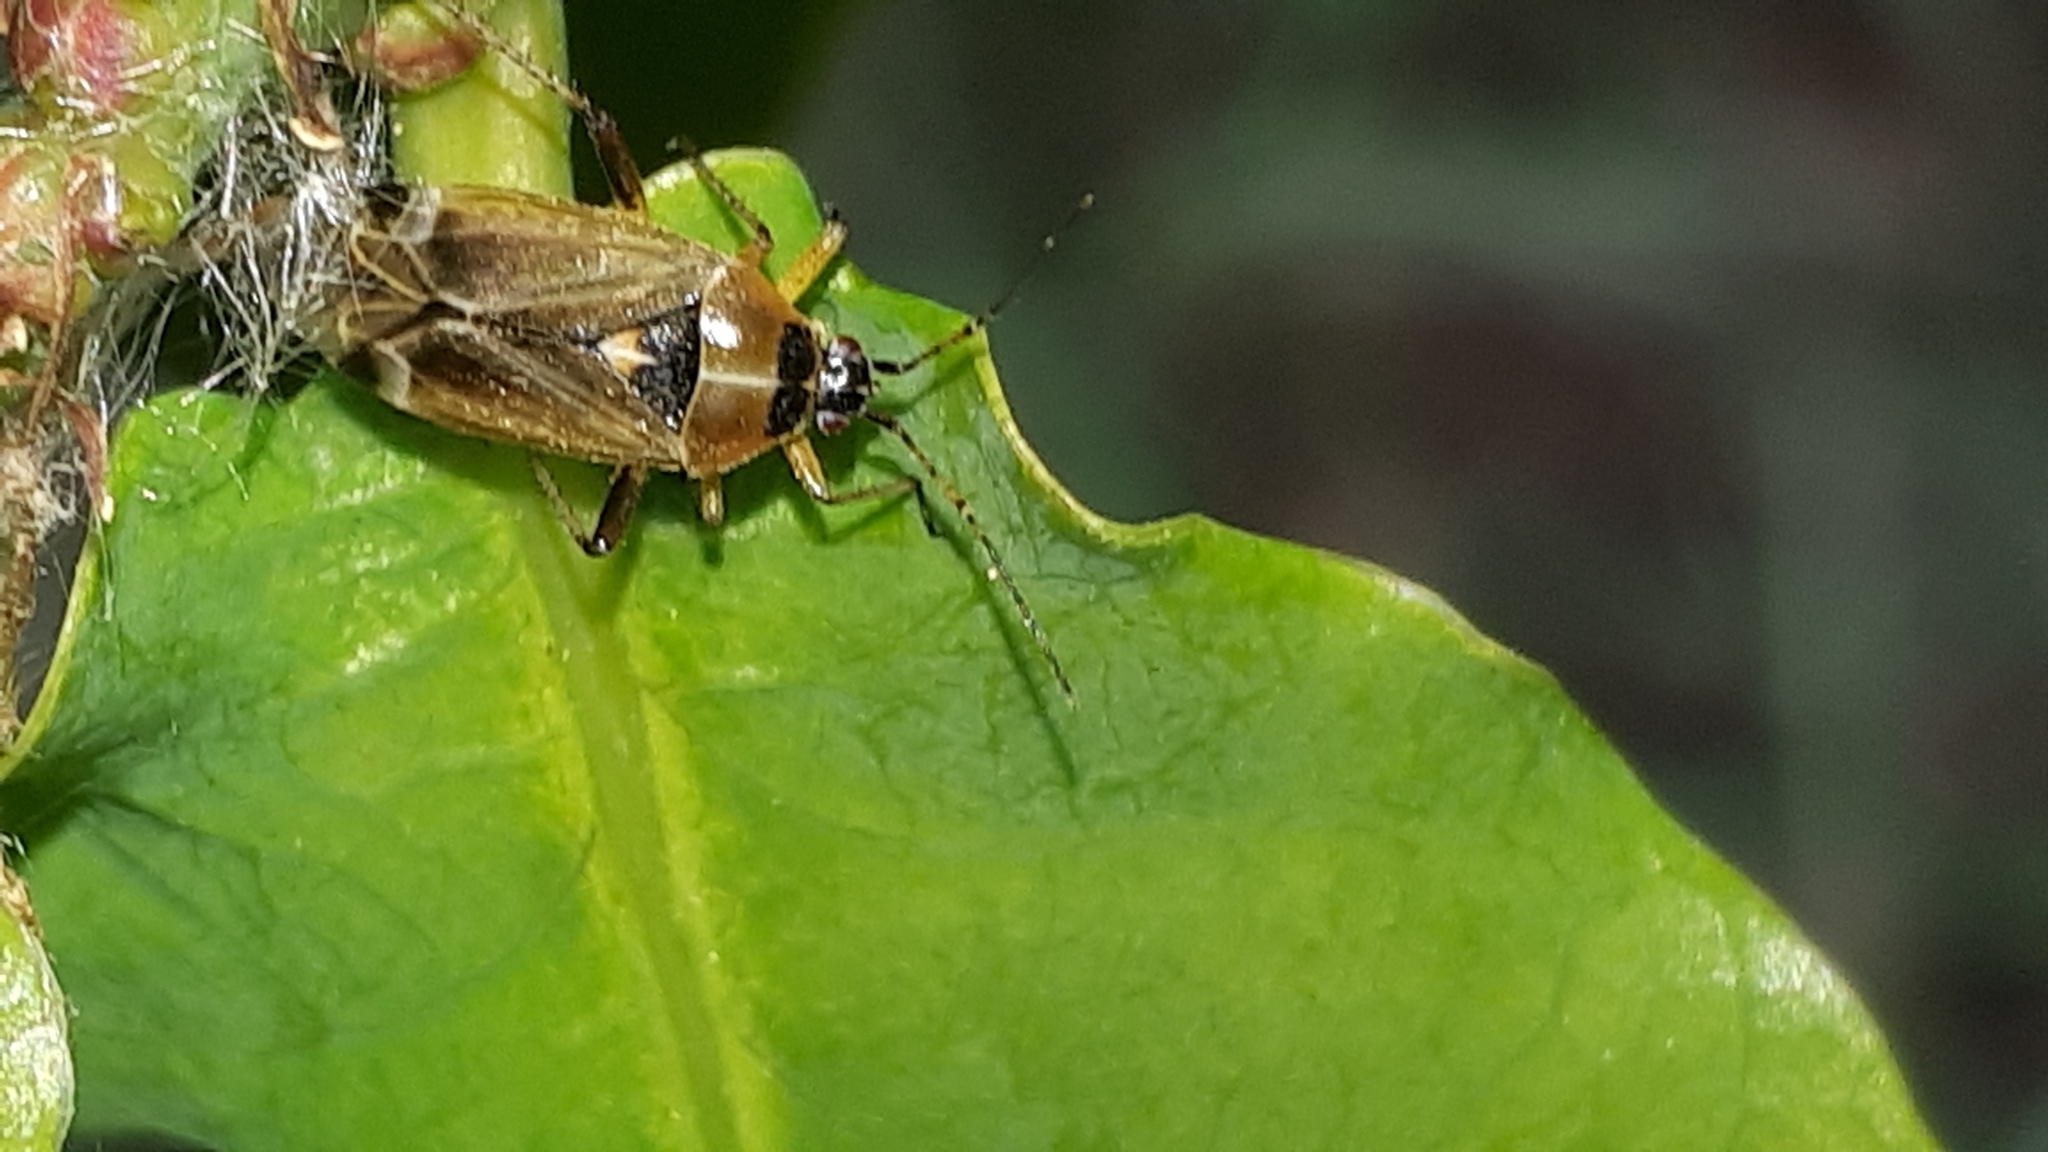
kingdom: Animalia
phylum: Arthropoda
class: Insecta
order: Hemiptera
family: Miridae
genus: Harpocera
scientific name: Harpocera thoracica
